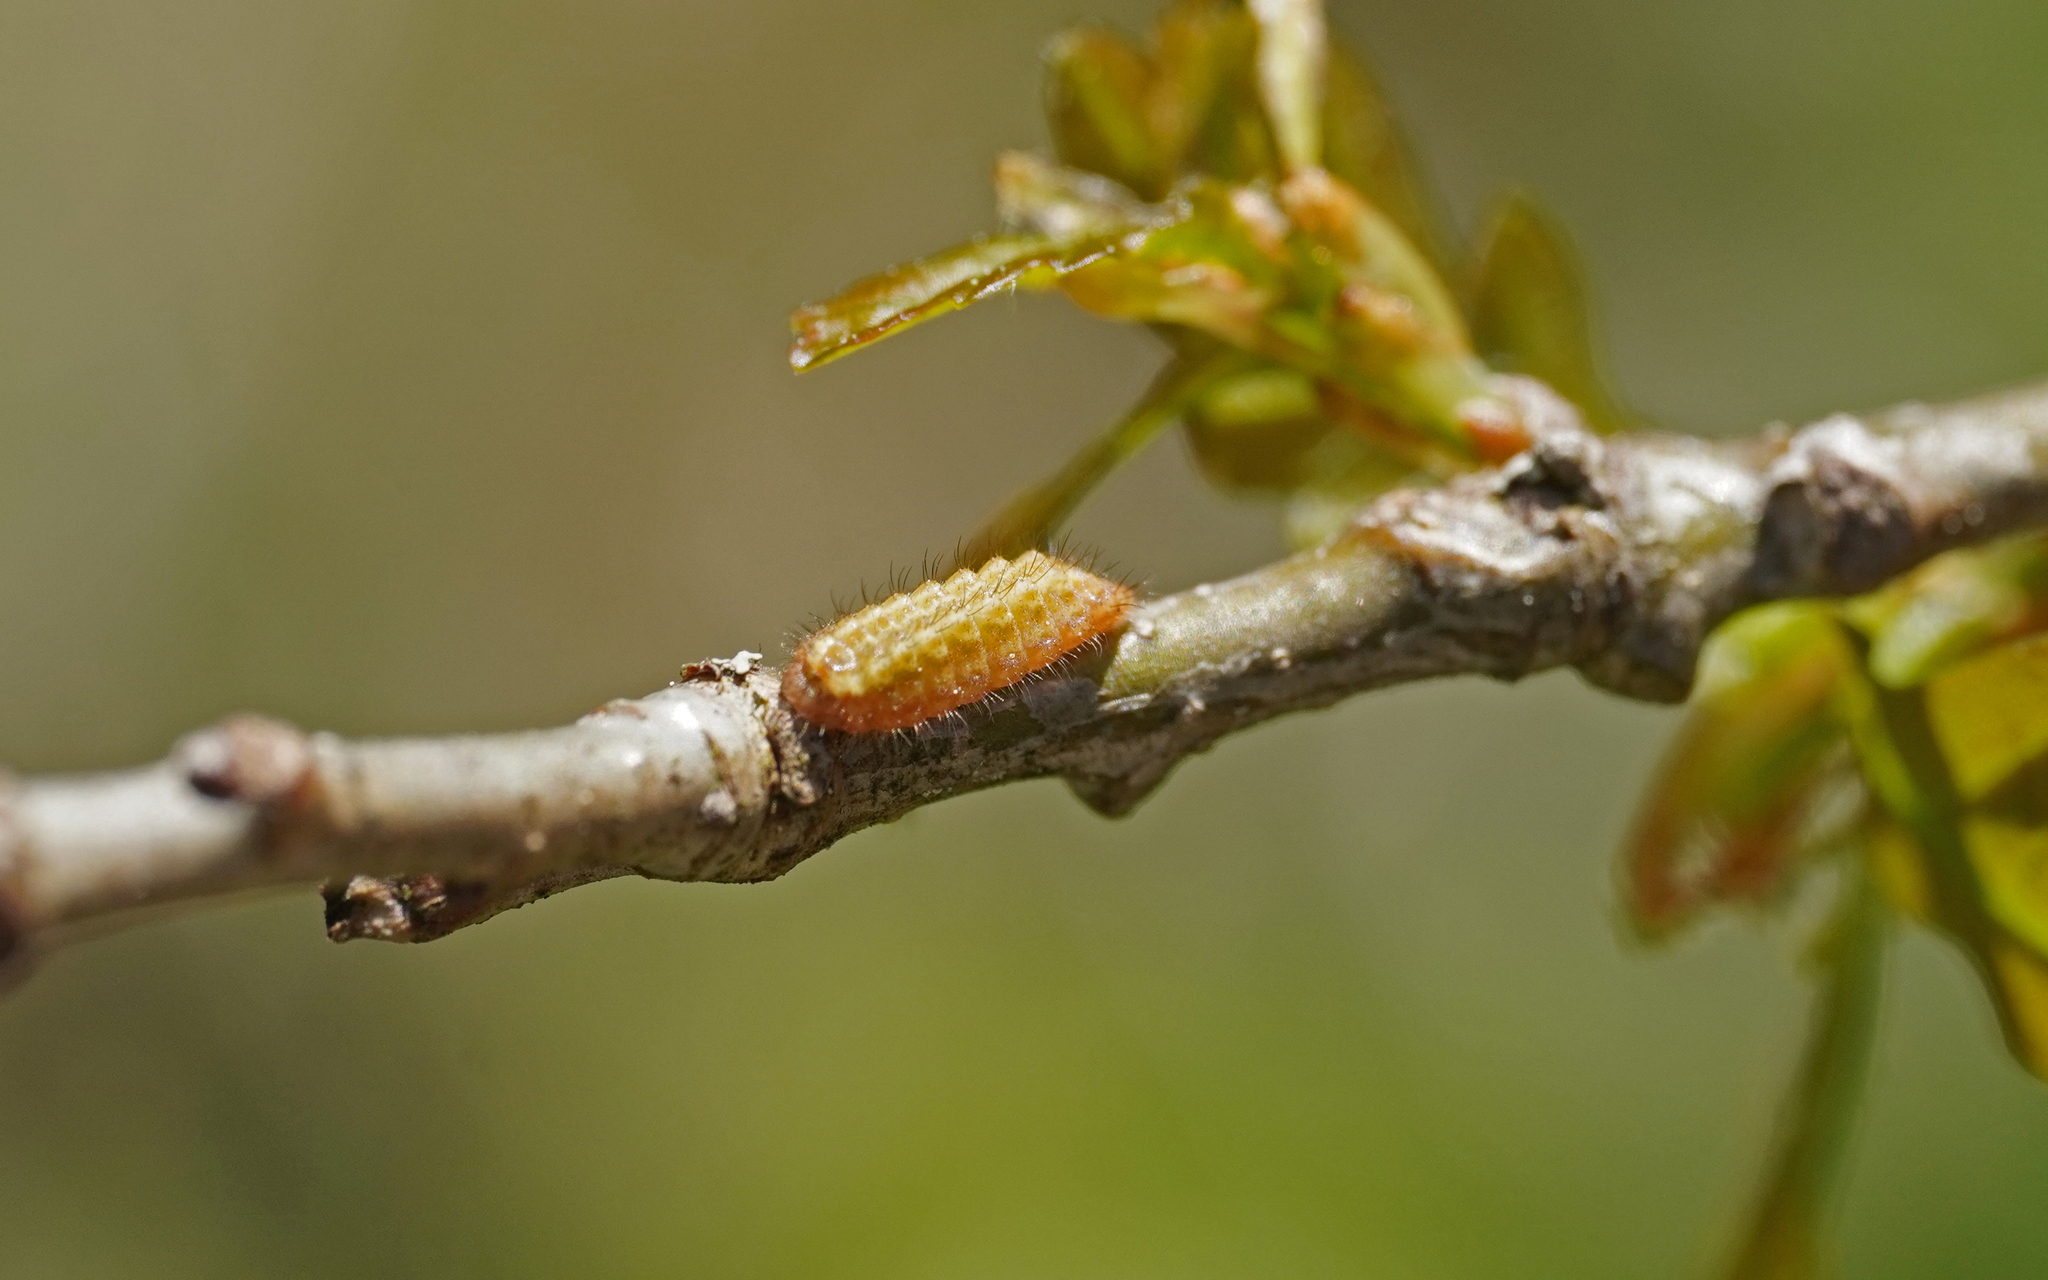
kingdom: Animalia
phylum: Arthropoda
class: Insecta
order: Lepidoptera
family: Lycaenidae
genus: Nordmannia
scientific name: Nordmannia ilicis
